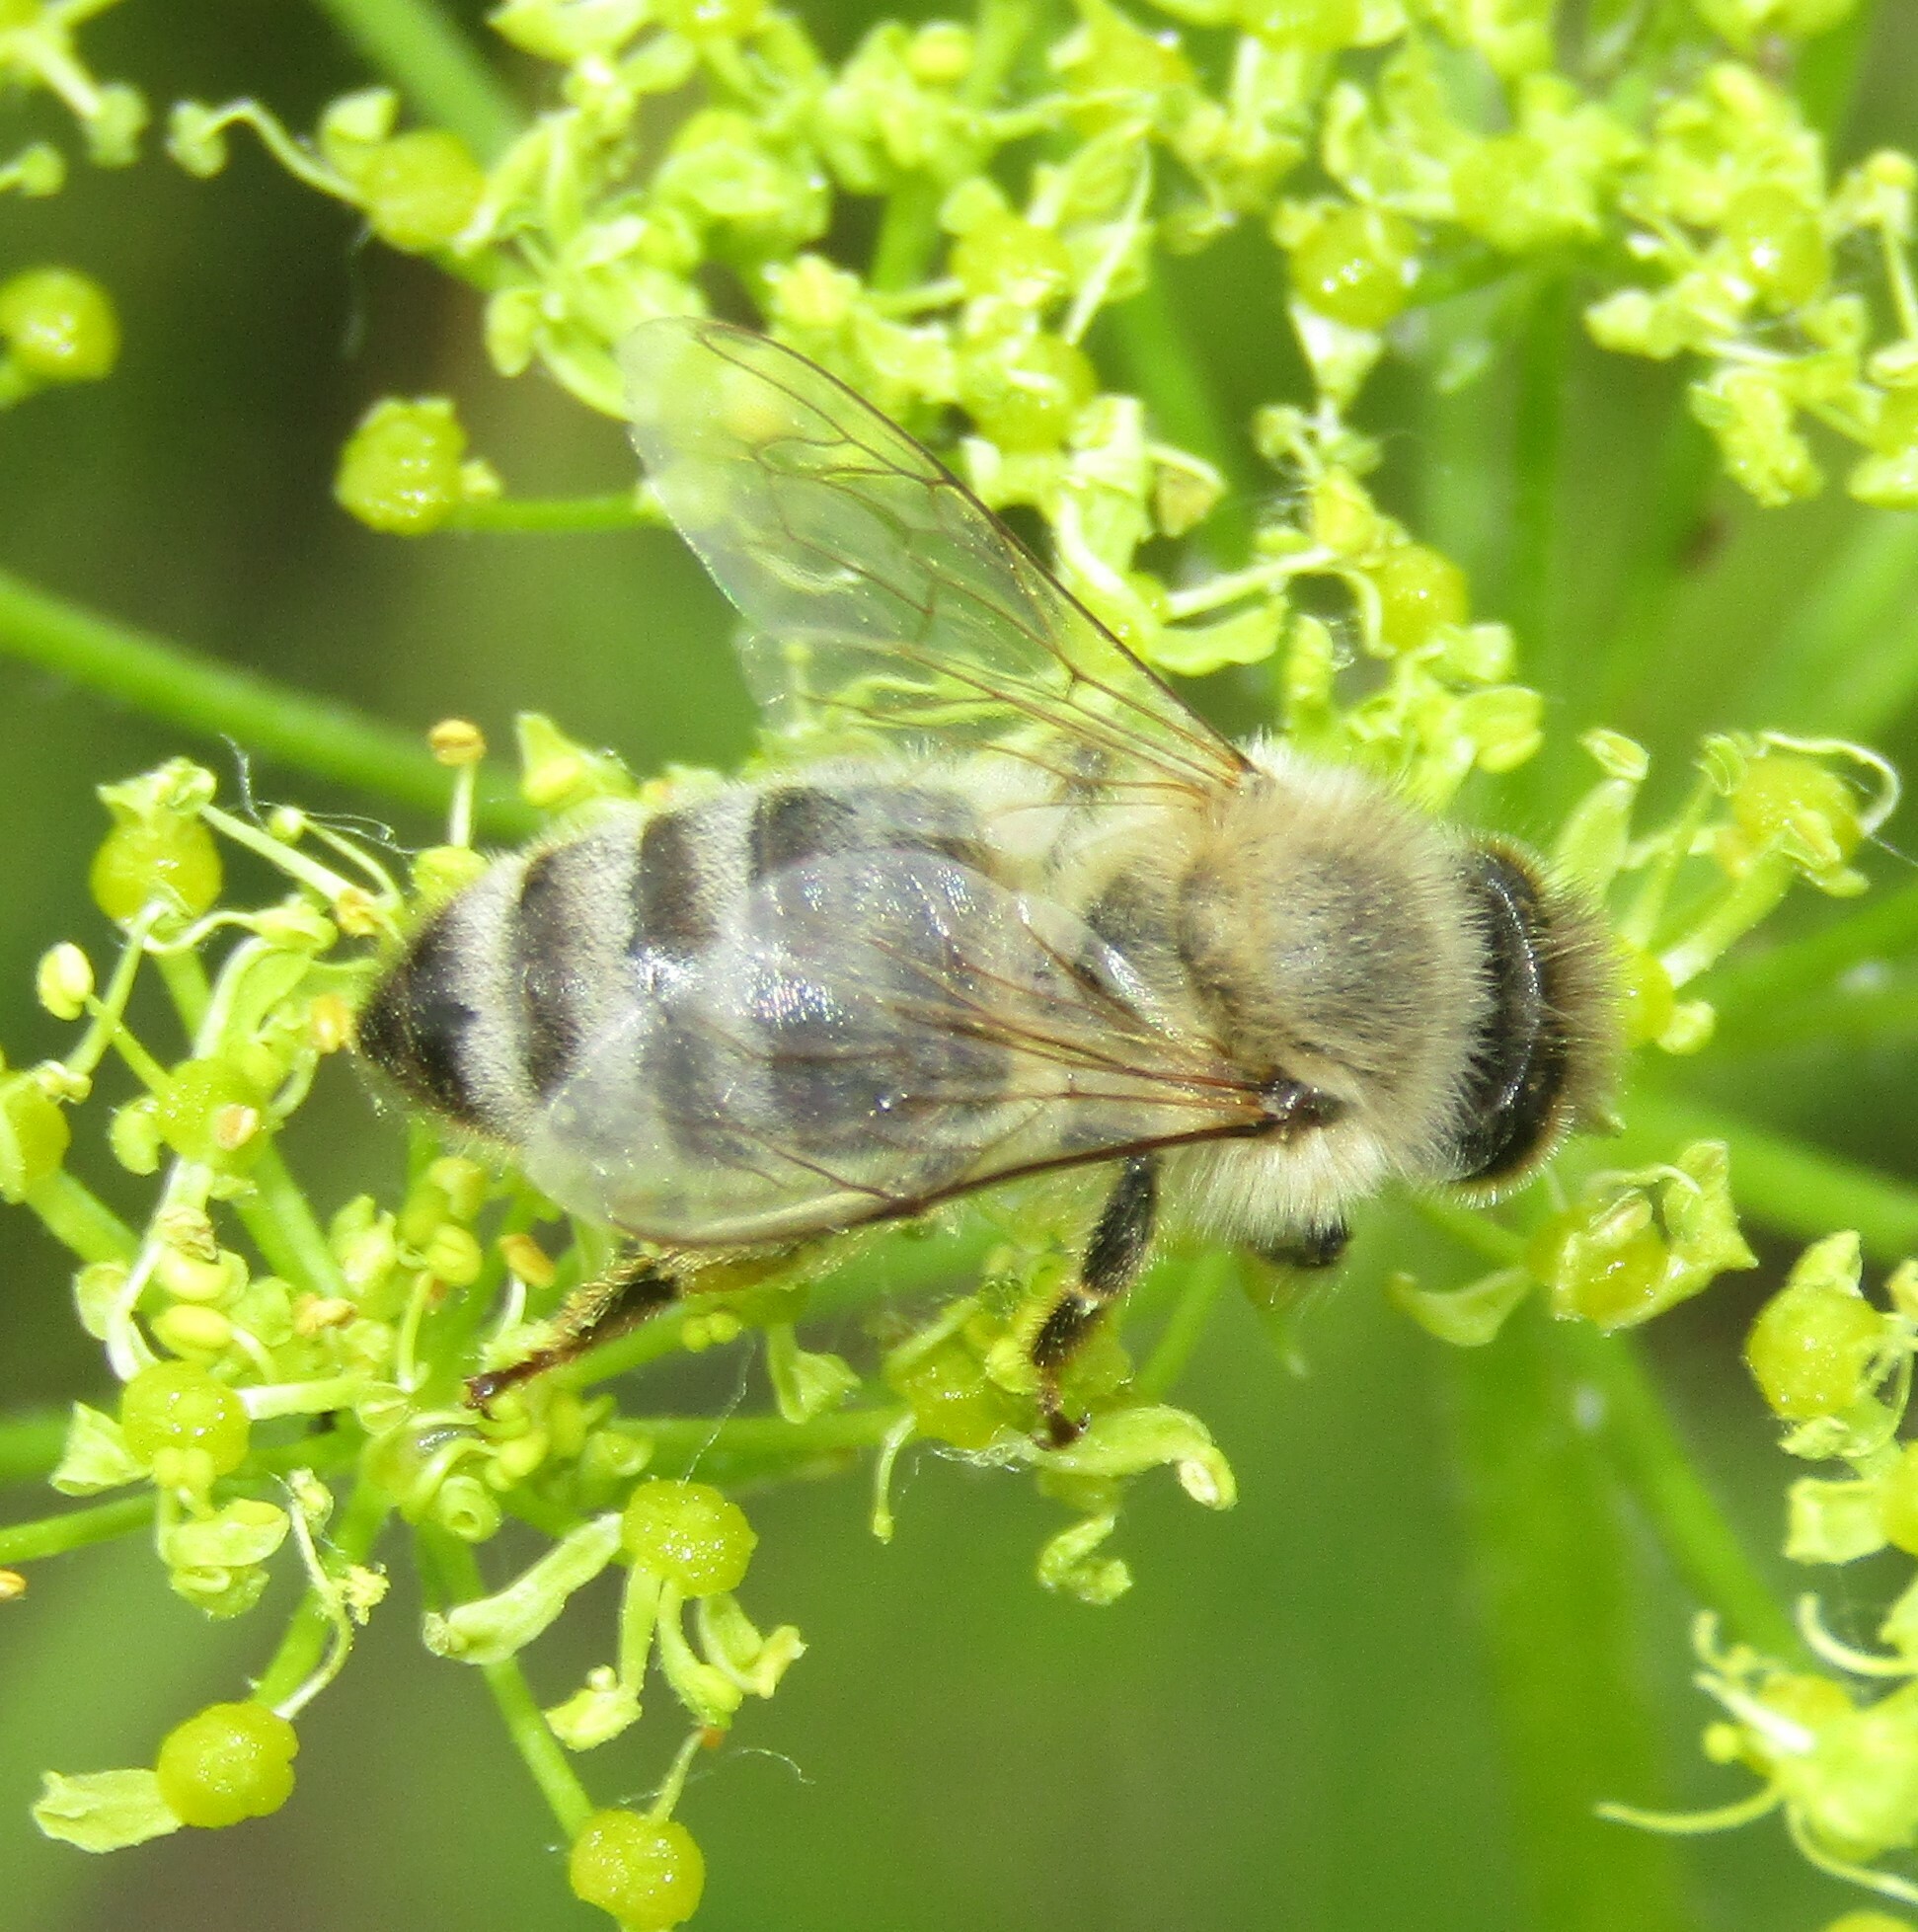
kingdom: Animalia
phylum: Arthropoda
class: Insecta
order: Hymenoptera
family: Apidae
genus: Apis
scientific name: Apis mellifera
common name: Honey bee
